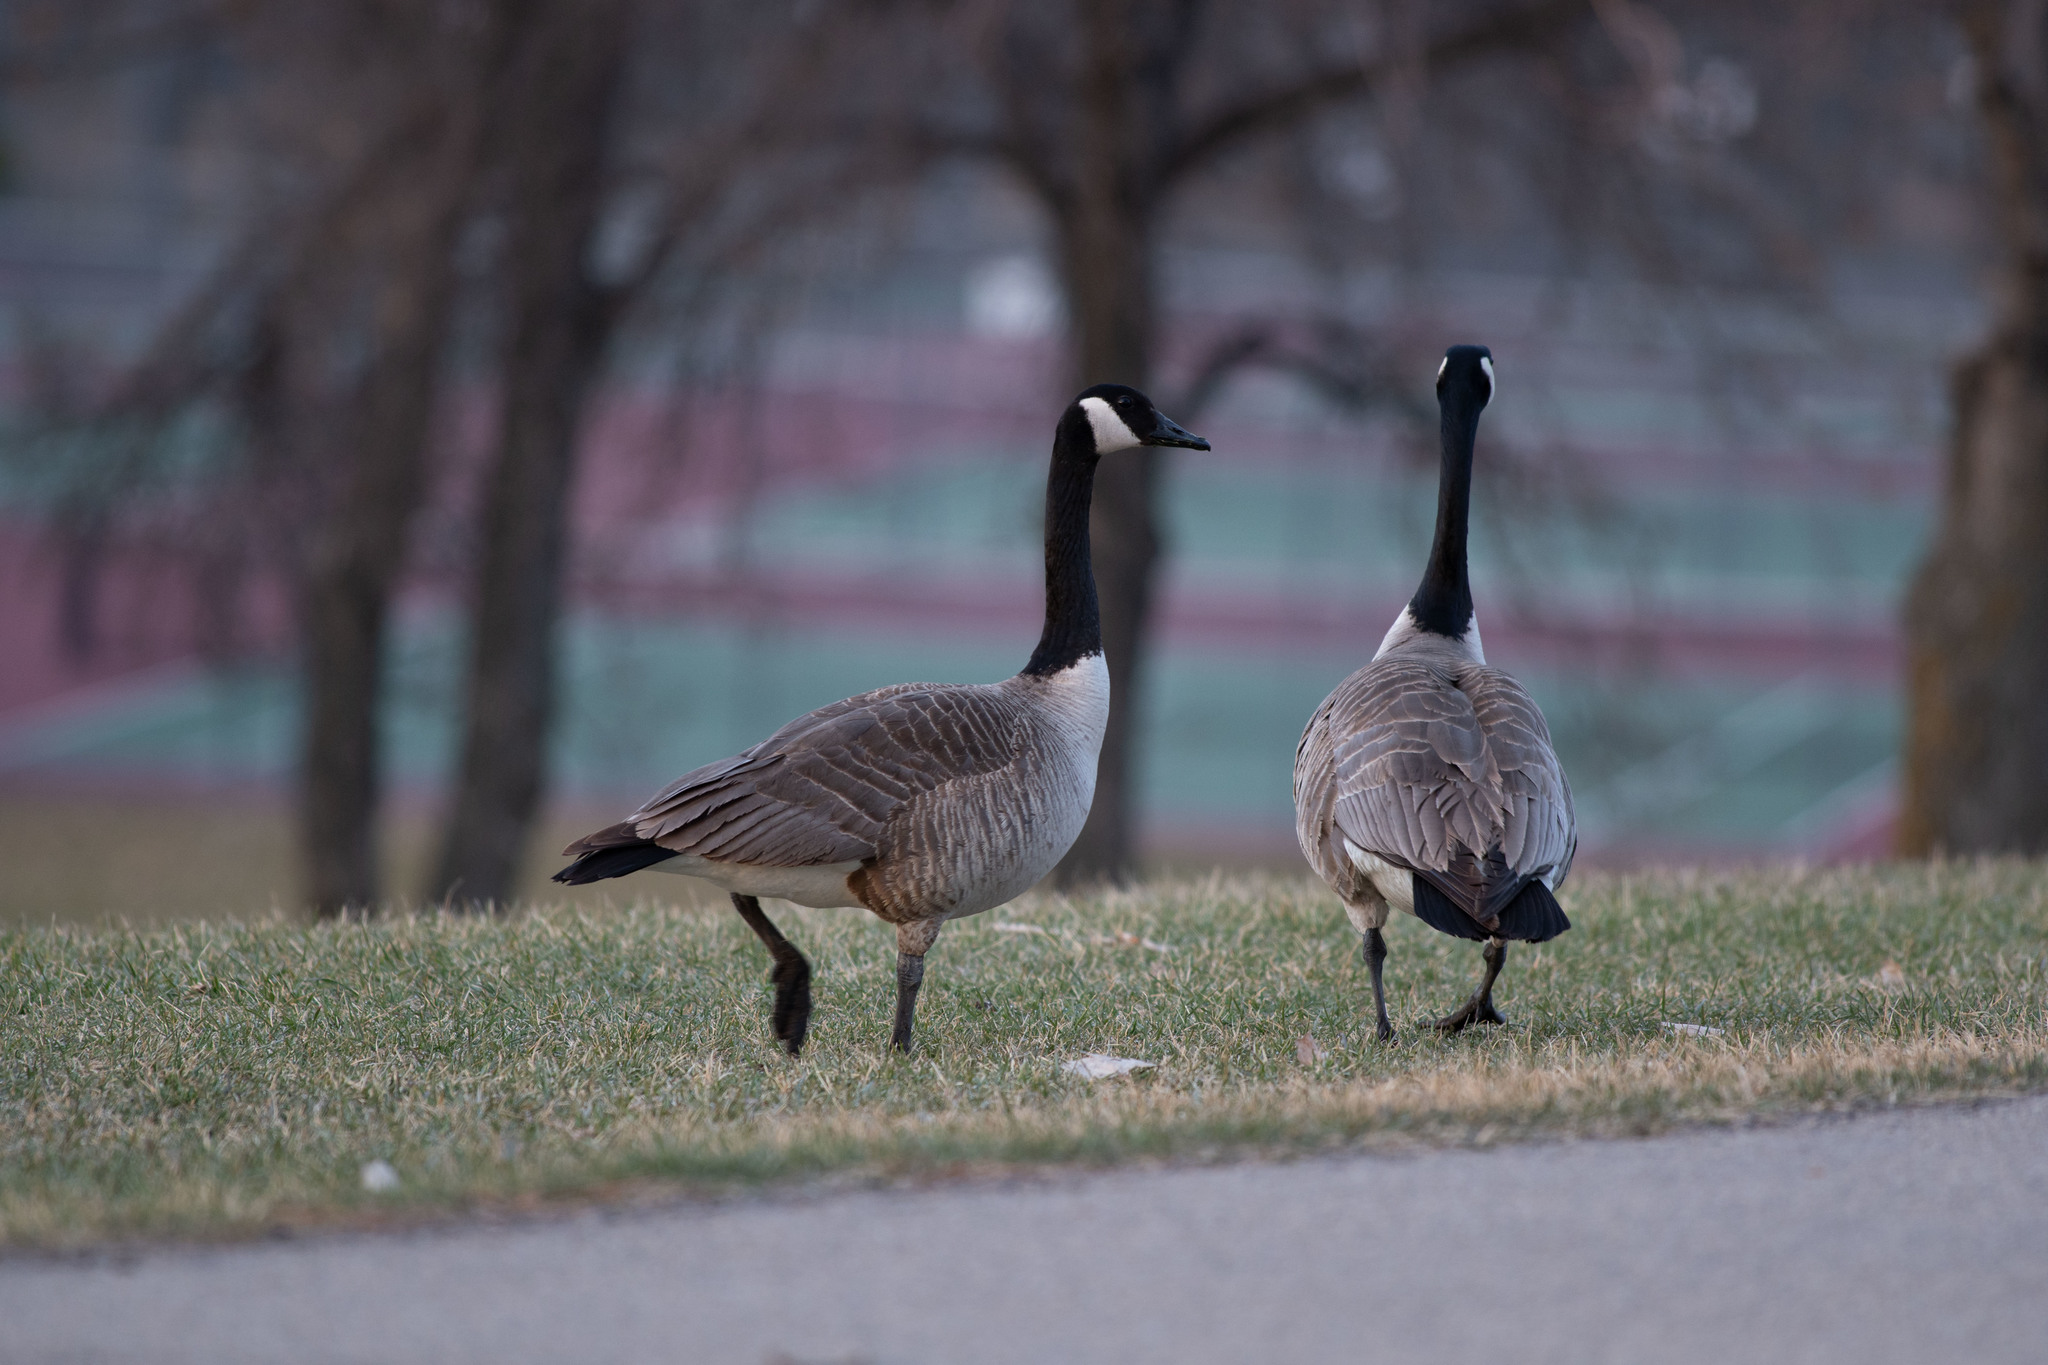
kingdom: Animalia
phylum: Chordata
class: Aves
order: Anseriformes
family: Anatidae
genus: Branta
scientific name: Branta canadensis
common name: Canada goose
